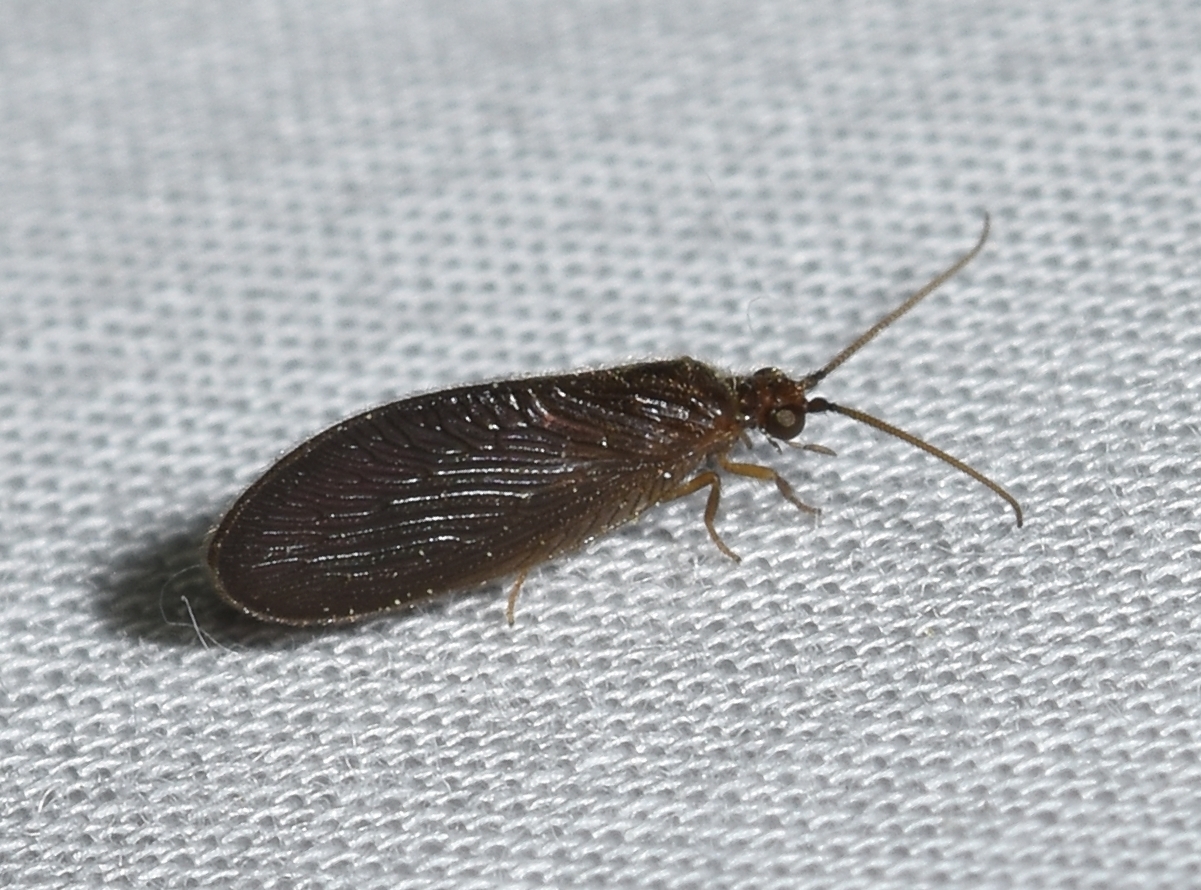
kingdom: Animalia
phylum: Arthropoda
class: Insecta
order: Neuroptera
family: Sisyridae
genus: Sisyra
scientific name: Sisyra vicaria
